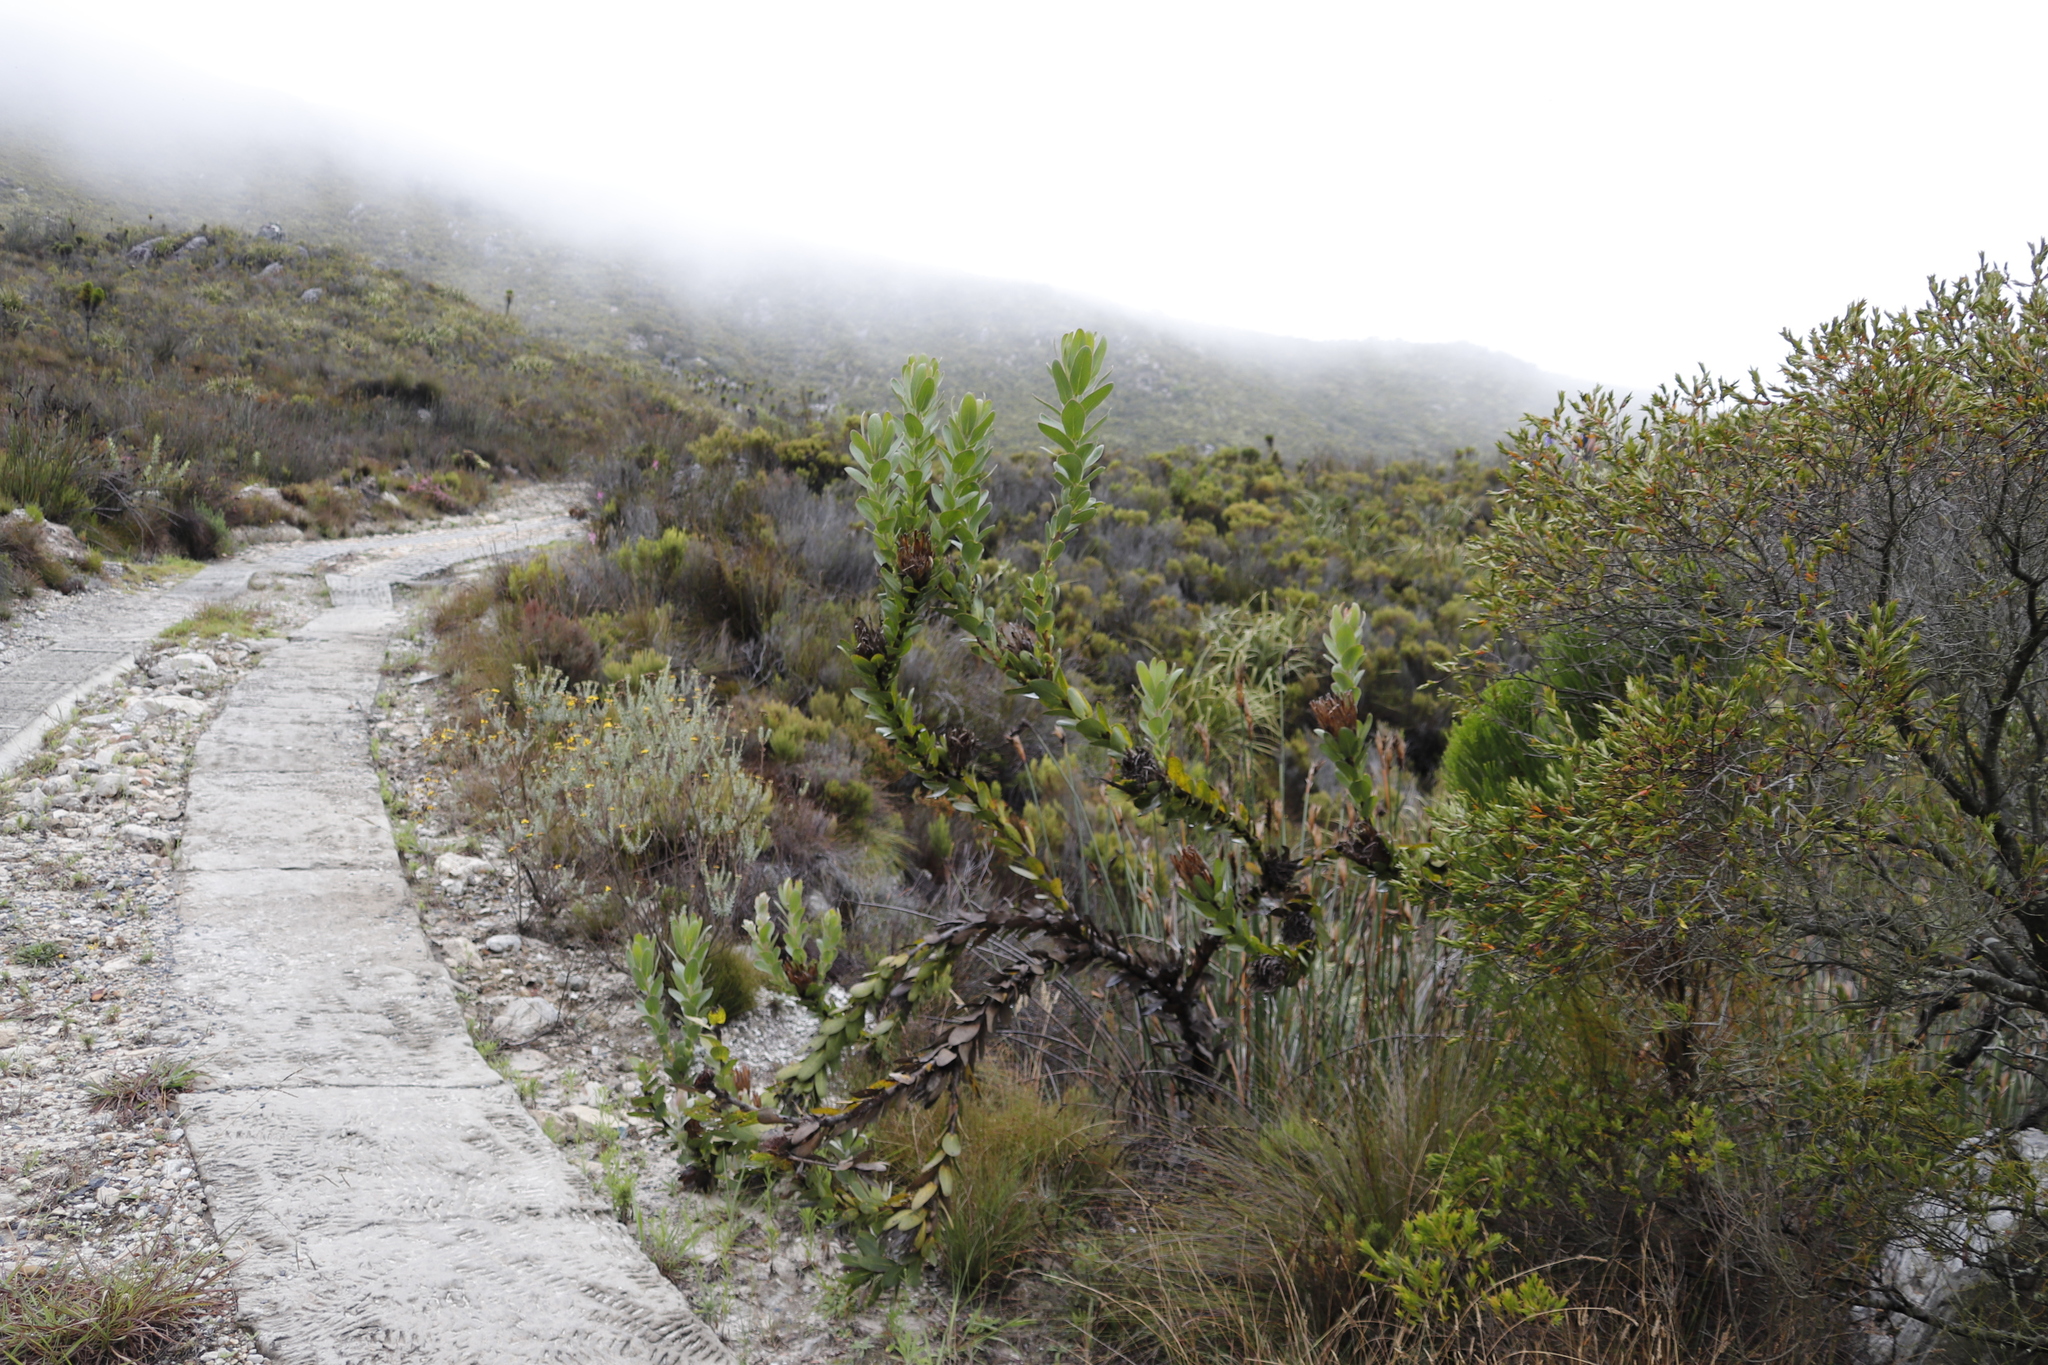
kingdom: Plantae
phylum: Tracheophyta
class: Magnoliopsida
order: Proteales
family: Proteaceae
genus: Protea
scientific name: Protea compacta
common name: Bot river protea
